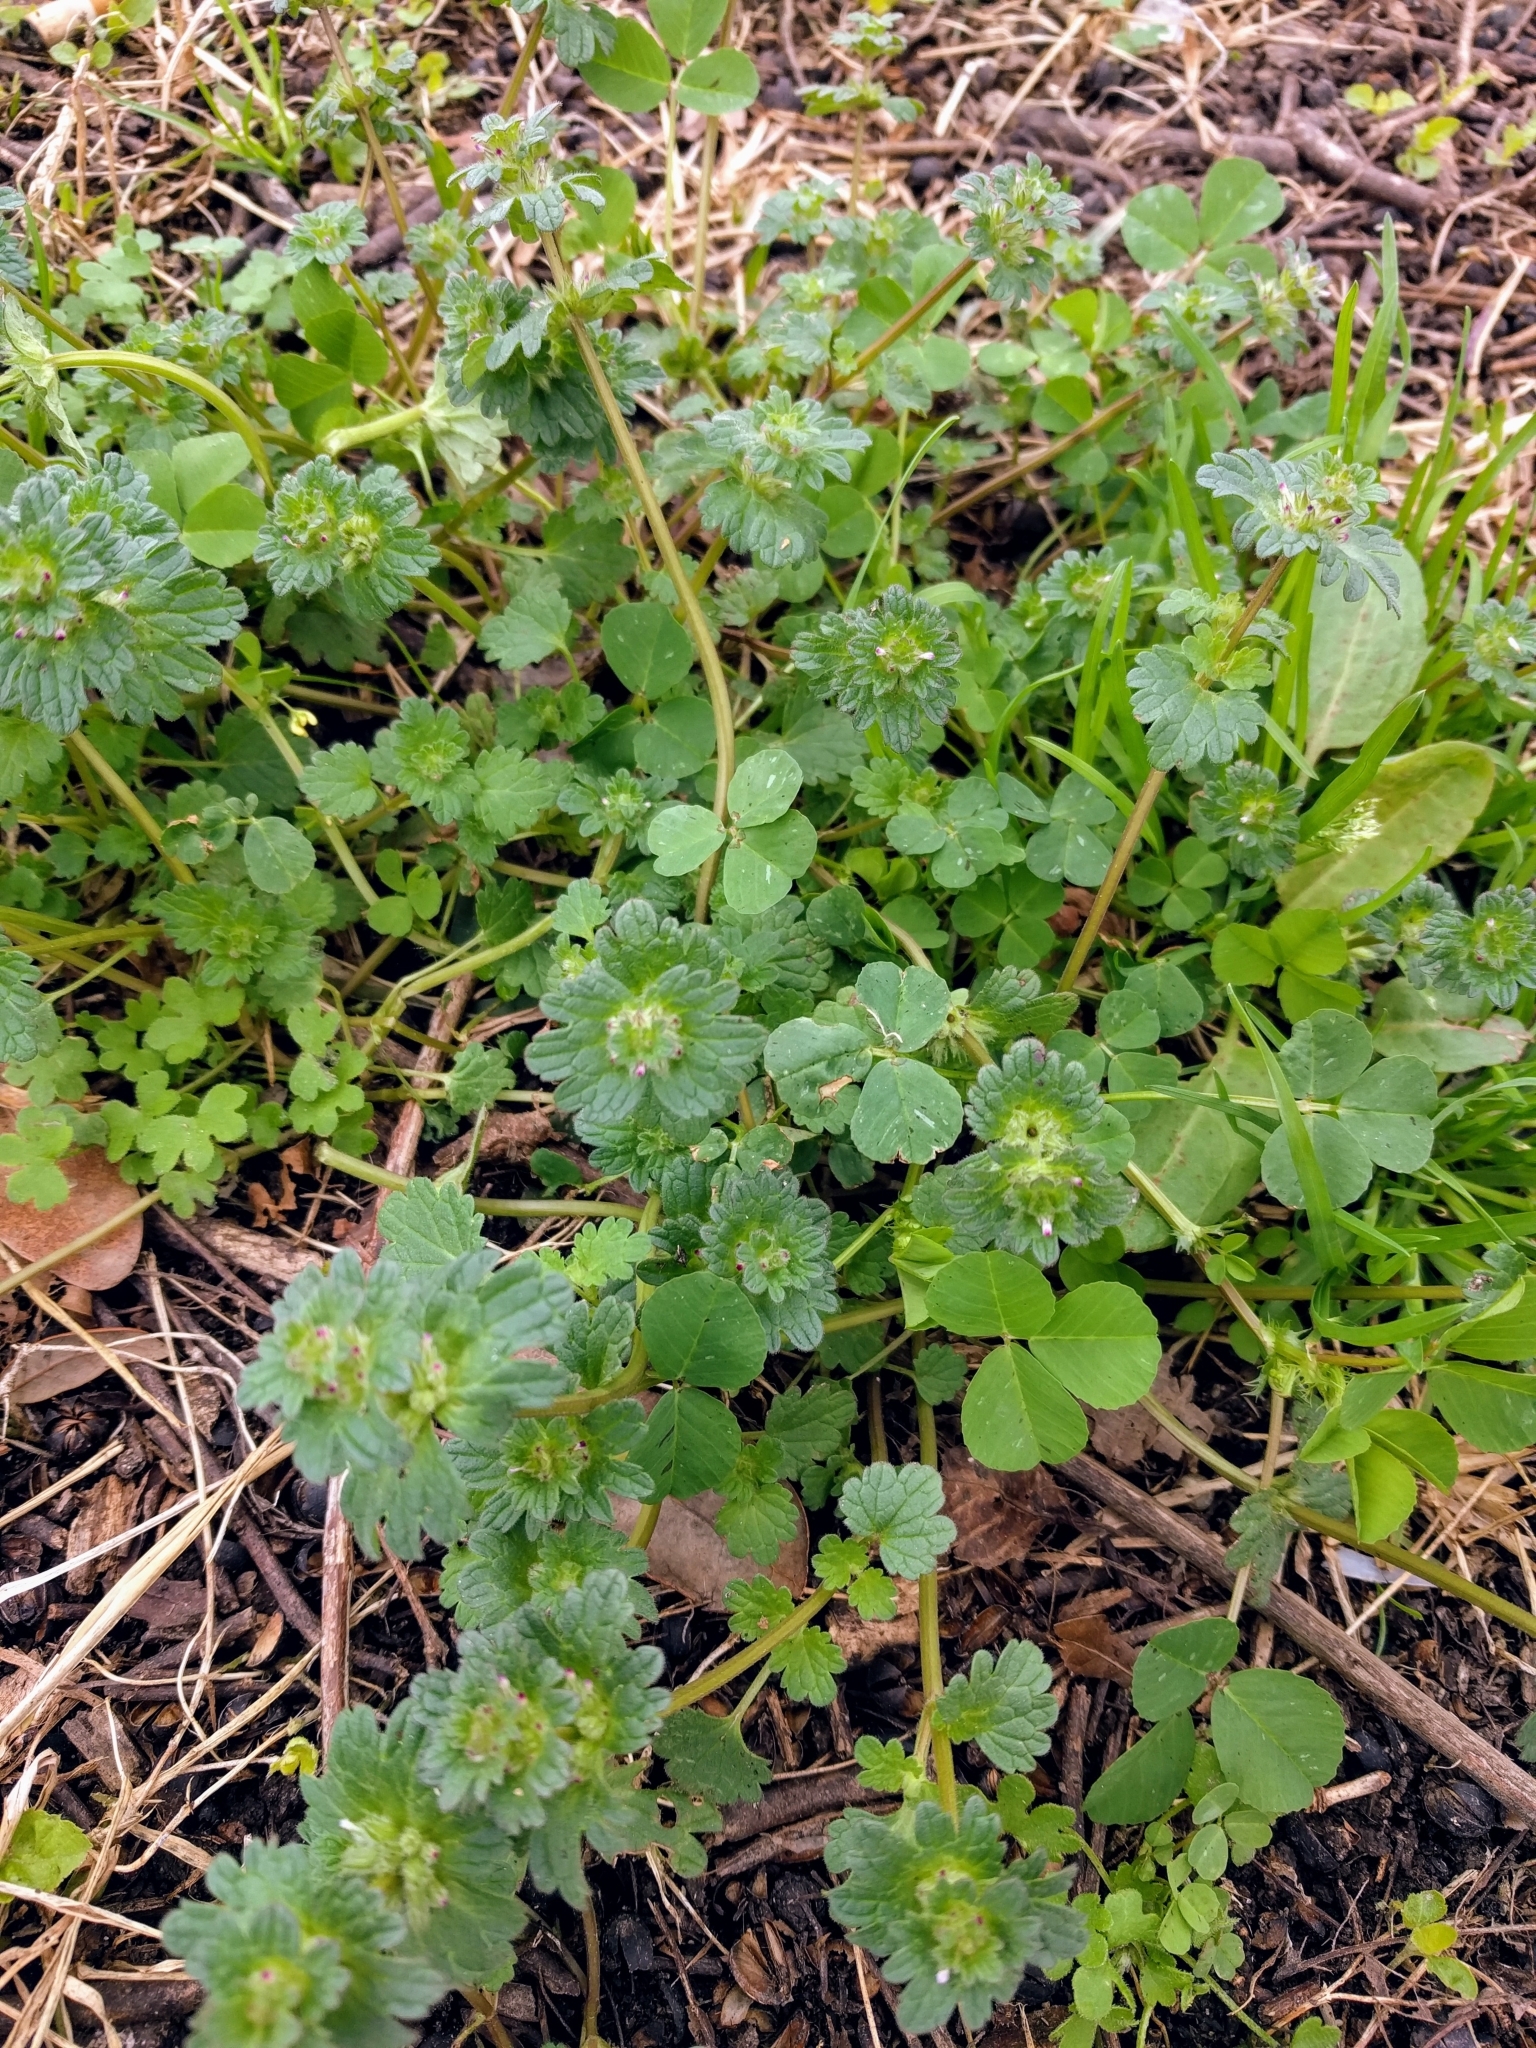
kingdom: Plantae
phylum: Tracheophyta
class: Magnoliopsida
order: Lamiales
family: Lamiaceae
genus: Lamium
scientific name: Lamium amplexicaule
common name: Henbit dead-nettle
